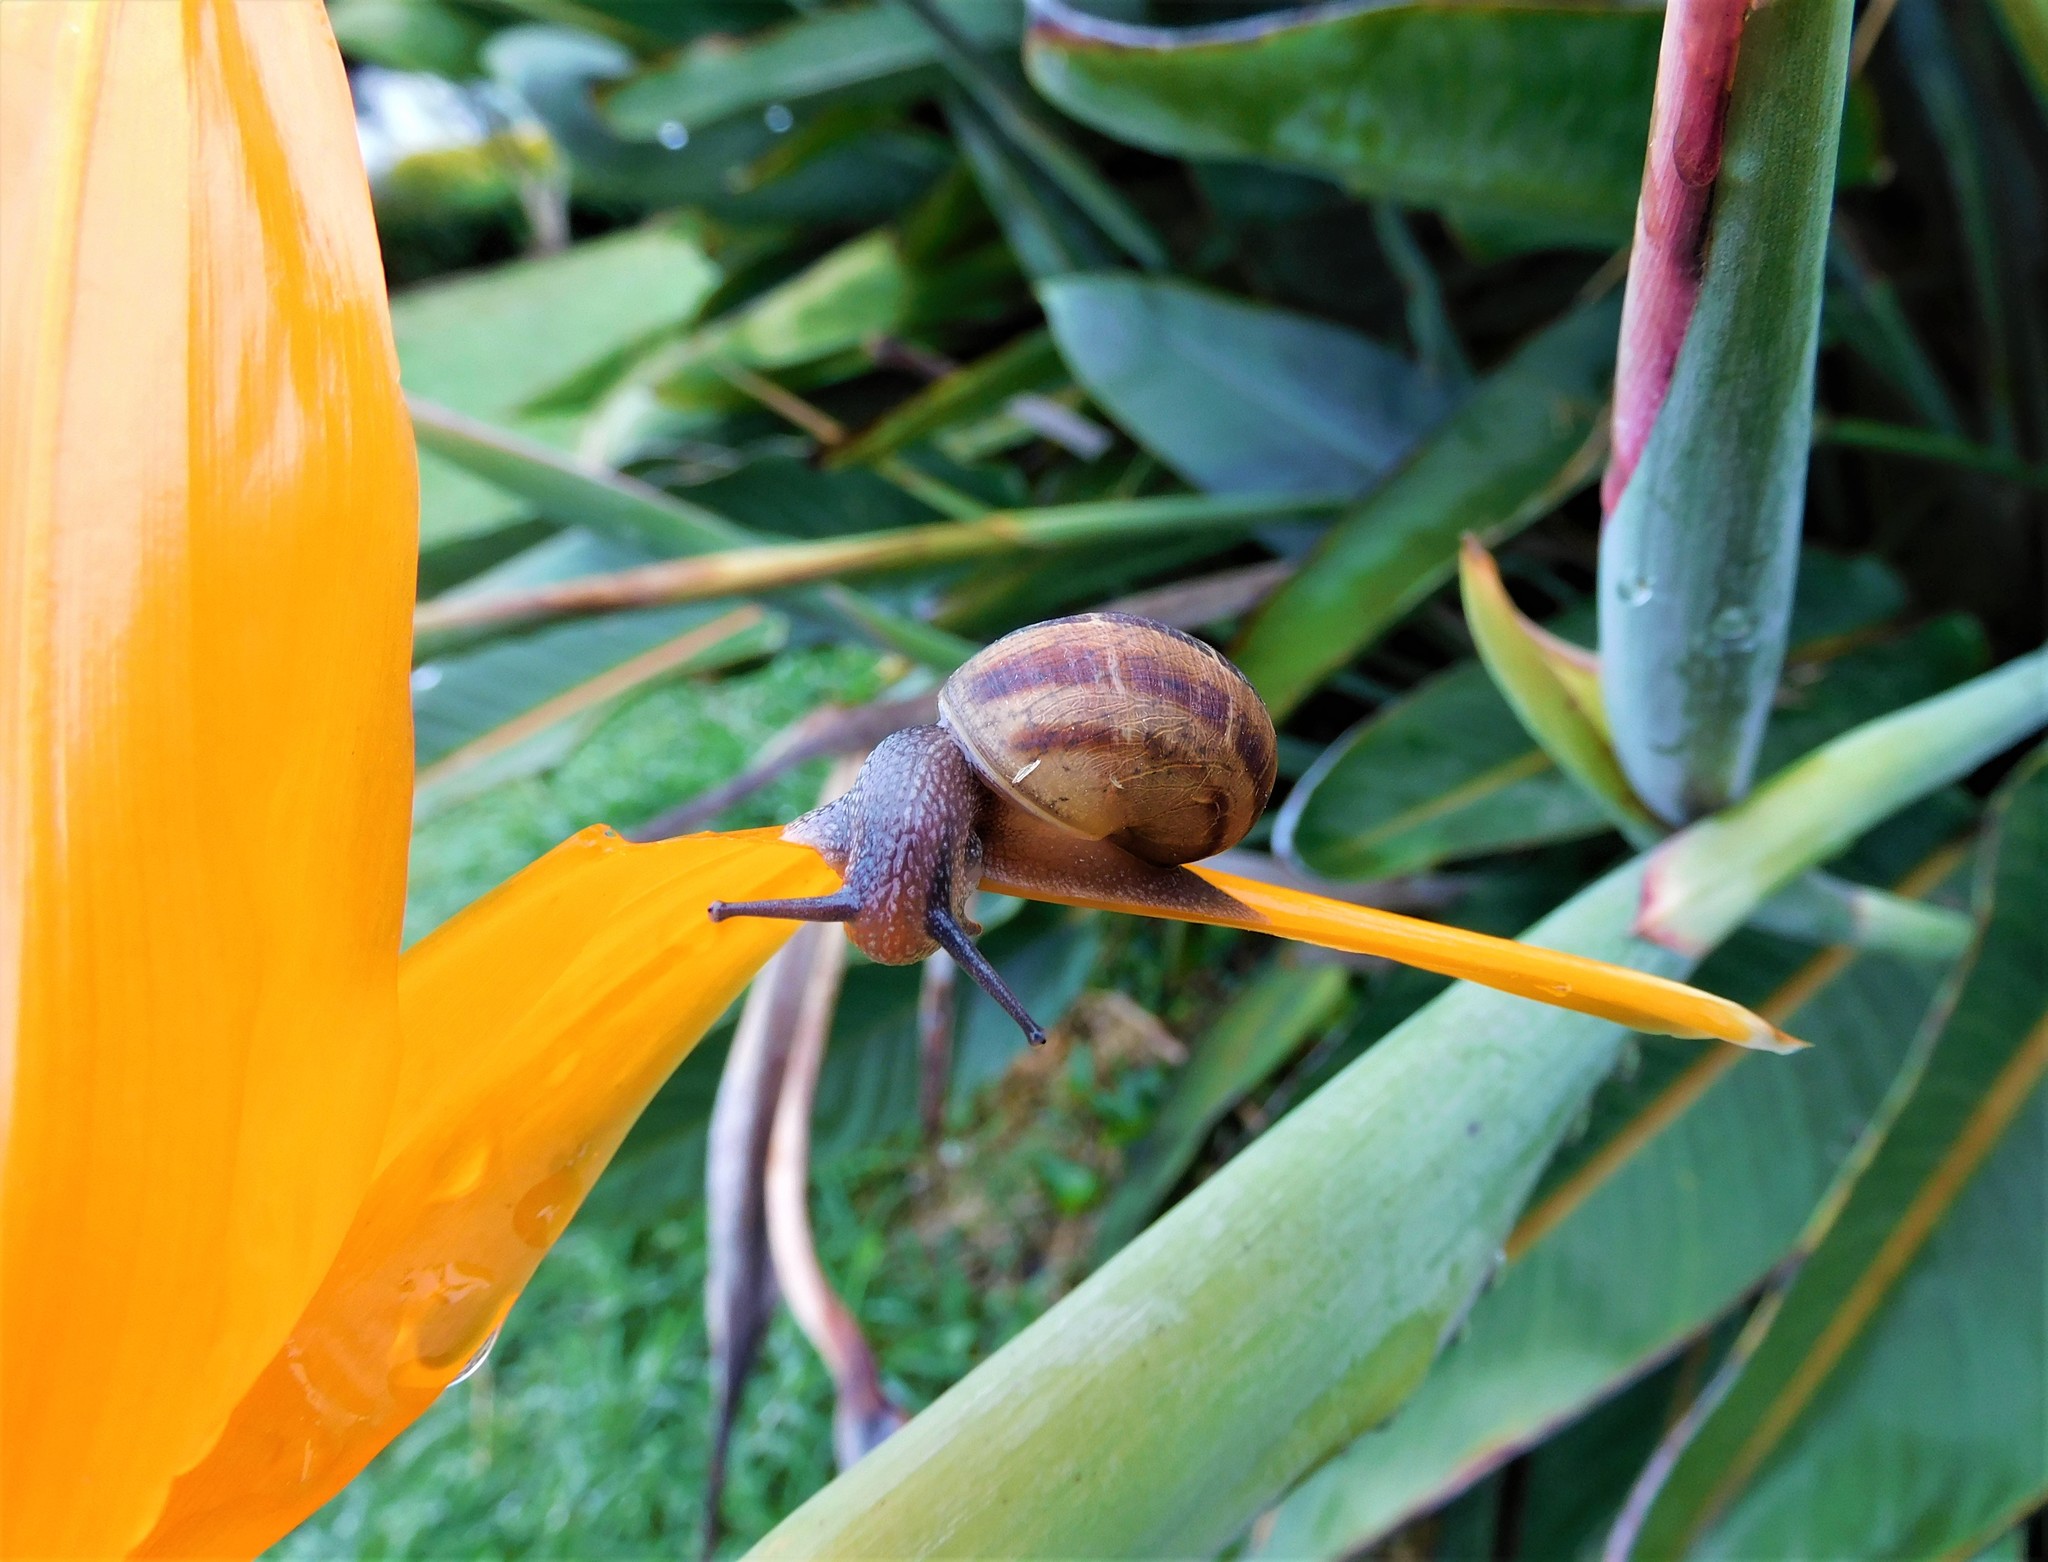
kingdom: Animalia
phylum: Mollusca
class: Gastropoda
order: Stylommatophora
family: Helicidae
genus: Cornu
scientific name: Cornu aspersum
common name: Brown garden snail
